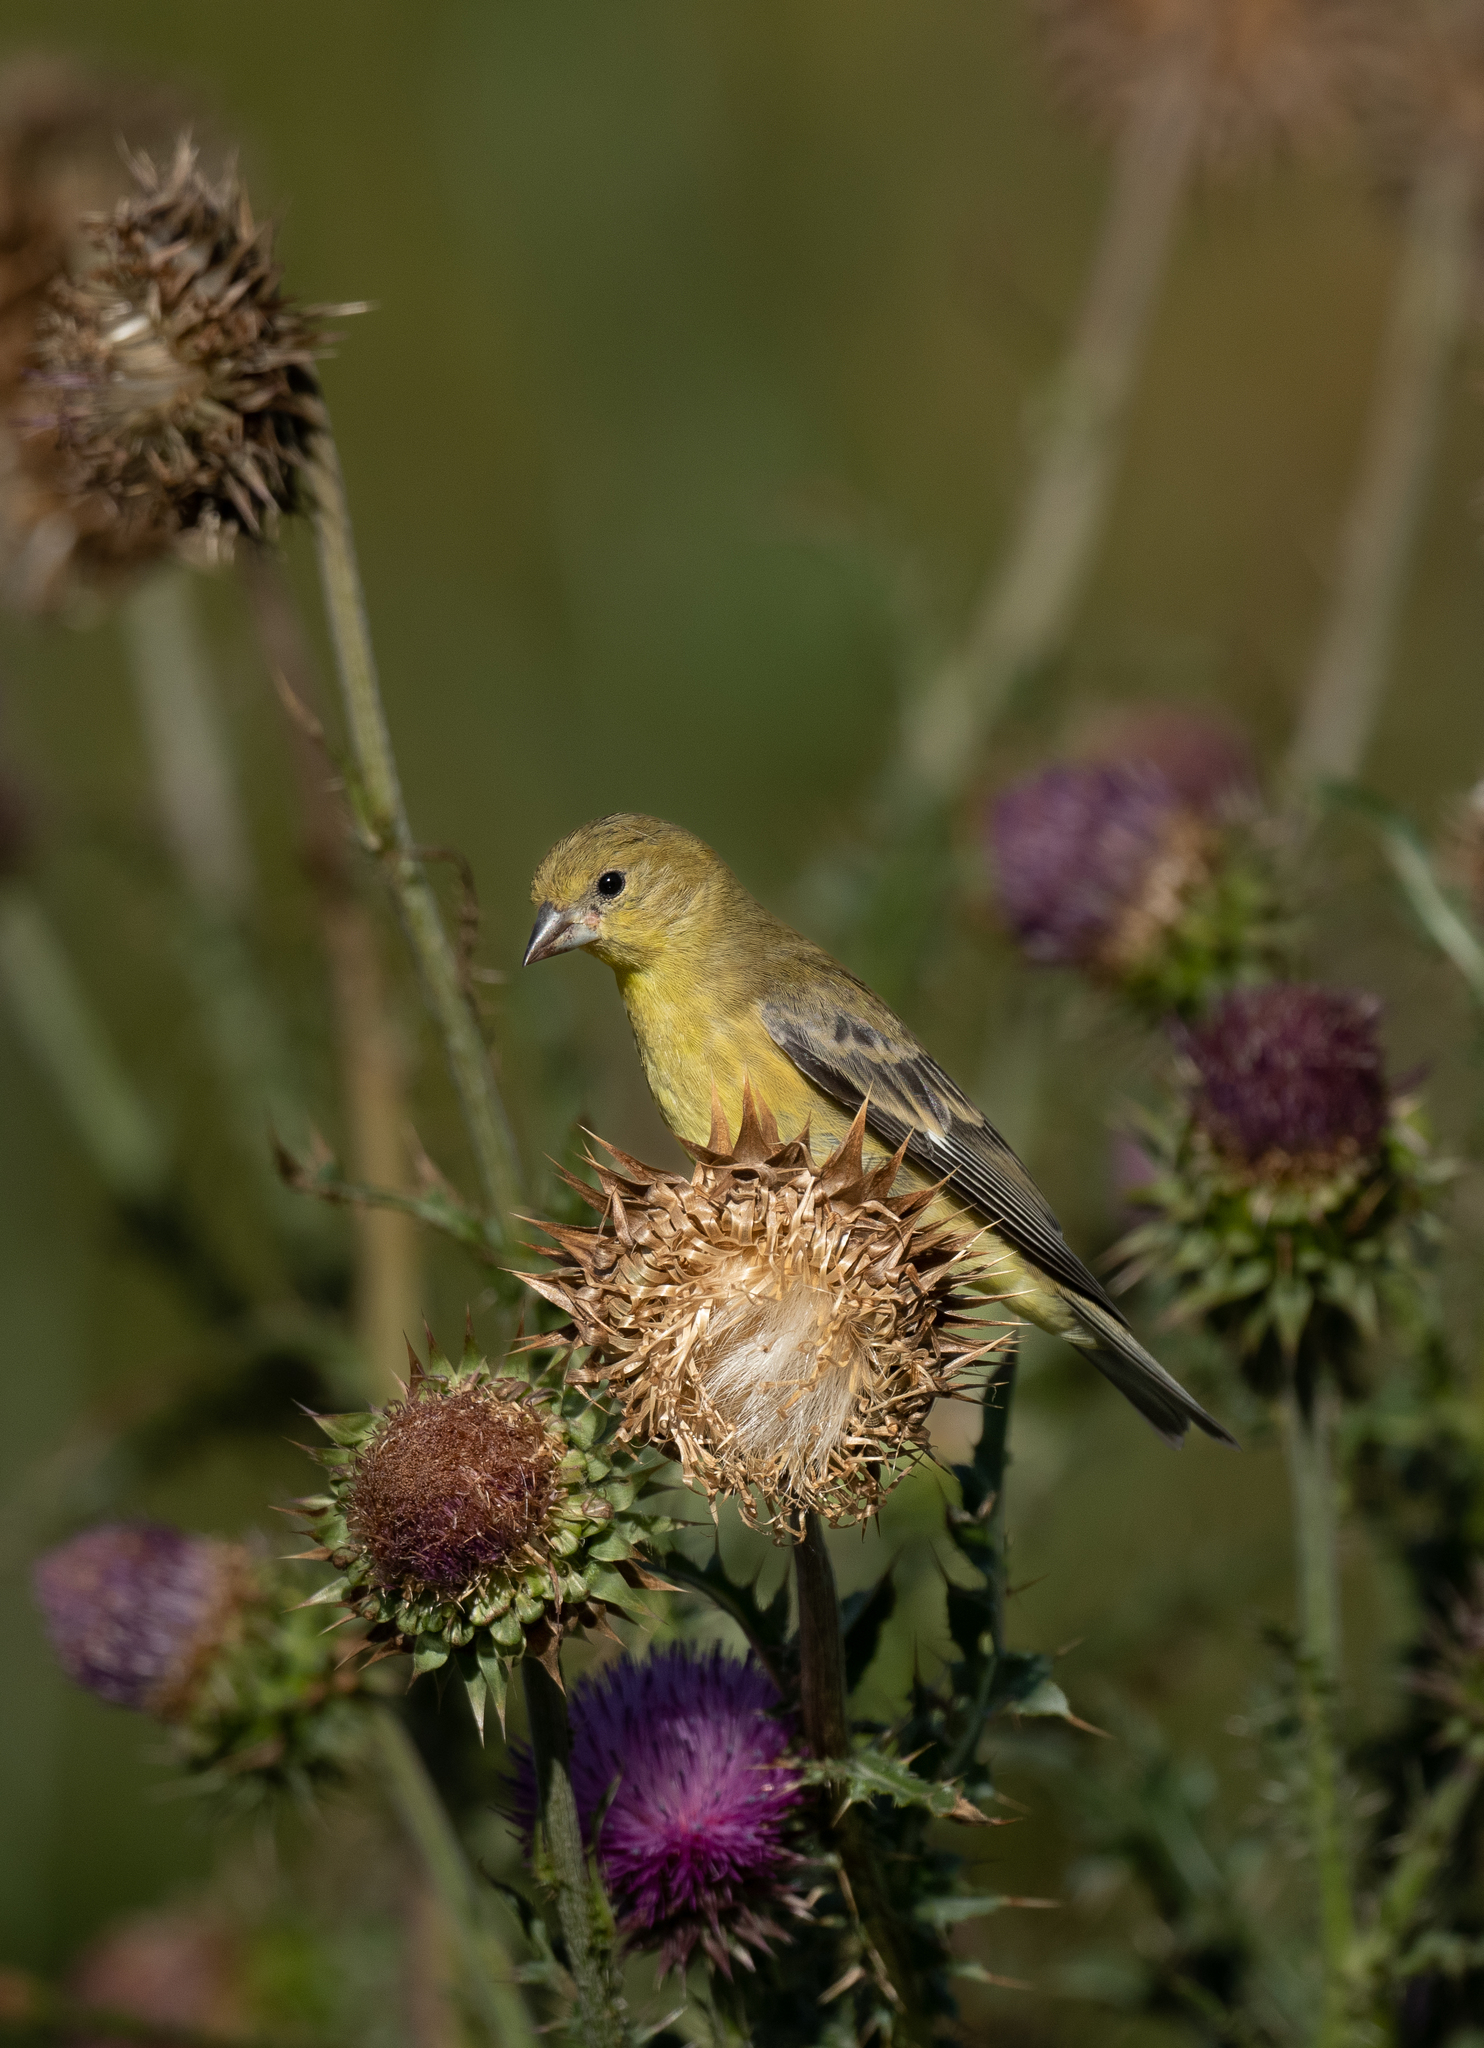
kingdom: Animalia
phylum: Chordata
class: Aves
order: Passeriformes
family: Fringillidae
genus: Spinus
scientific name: Spinus psaltria
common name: Lesser goldfinch
